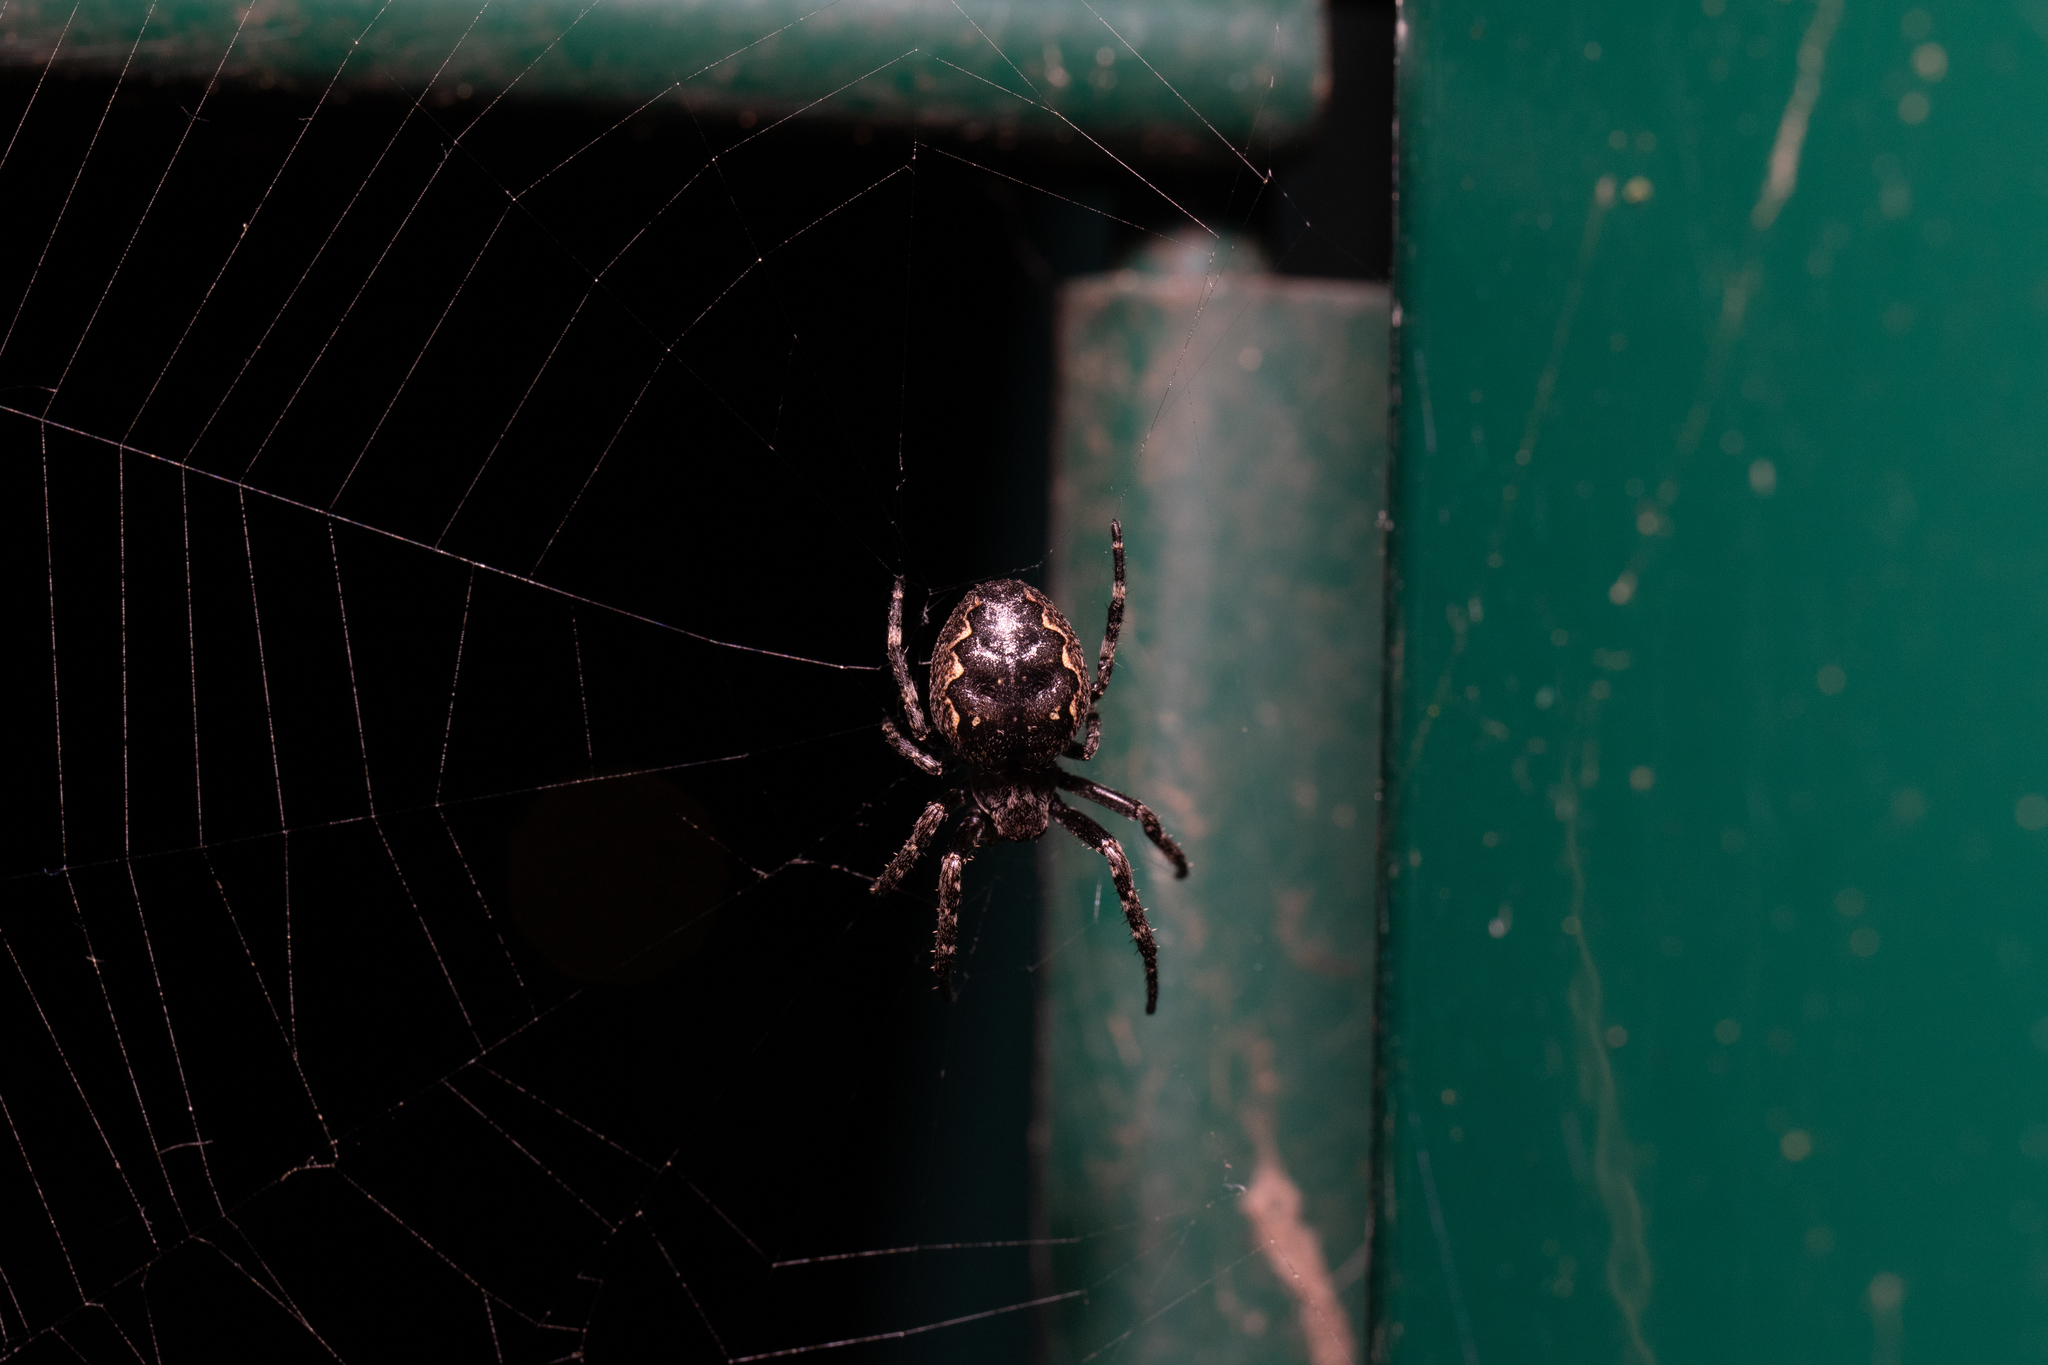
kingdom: Animalia
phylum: Arthropoda
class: Arachnida
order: Araneae
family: Araneidae
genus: Nuctenea
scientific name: Nuctenea umbratica
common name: Toad spider
